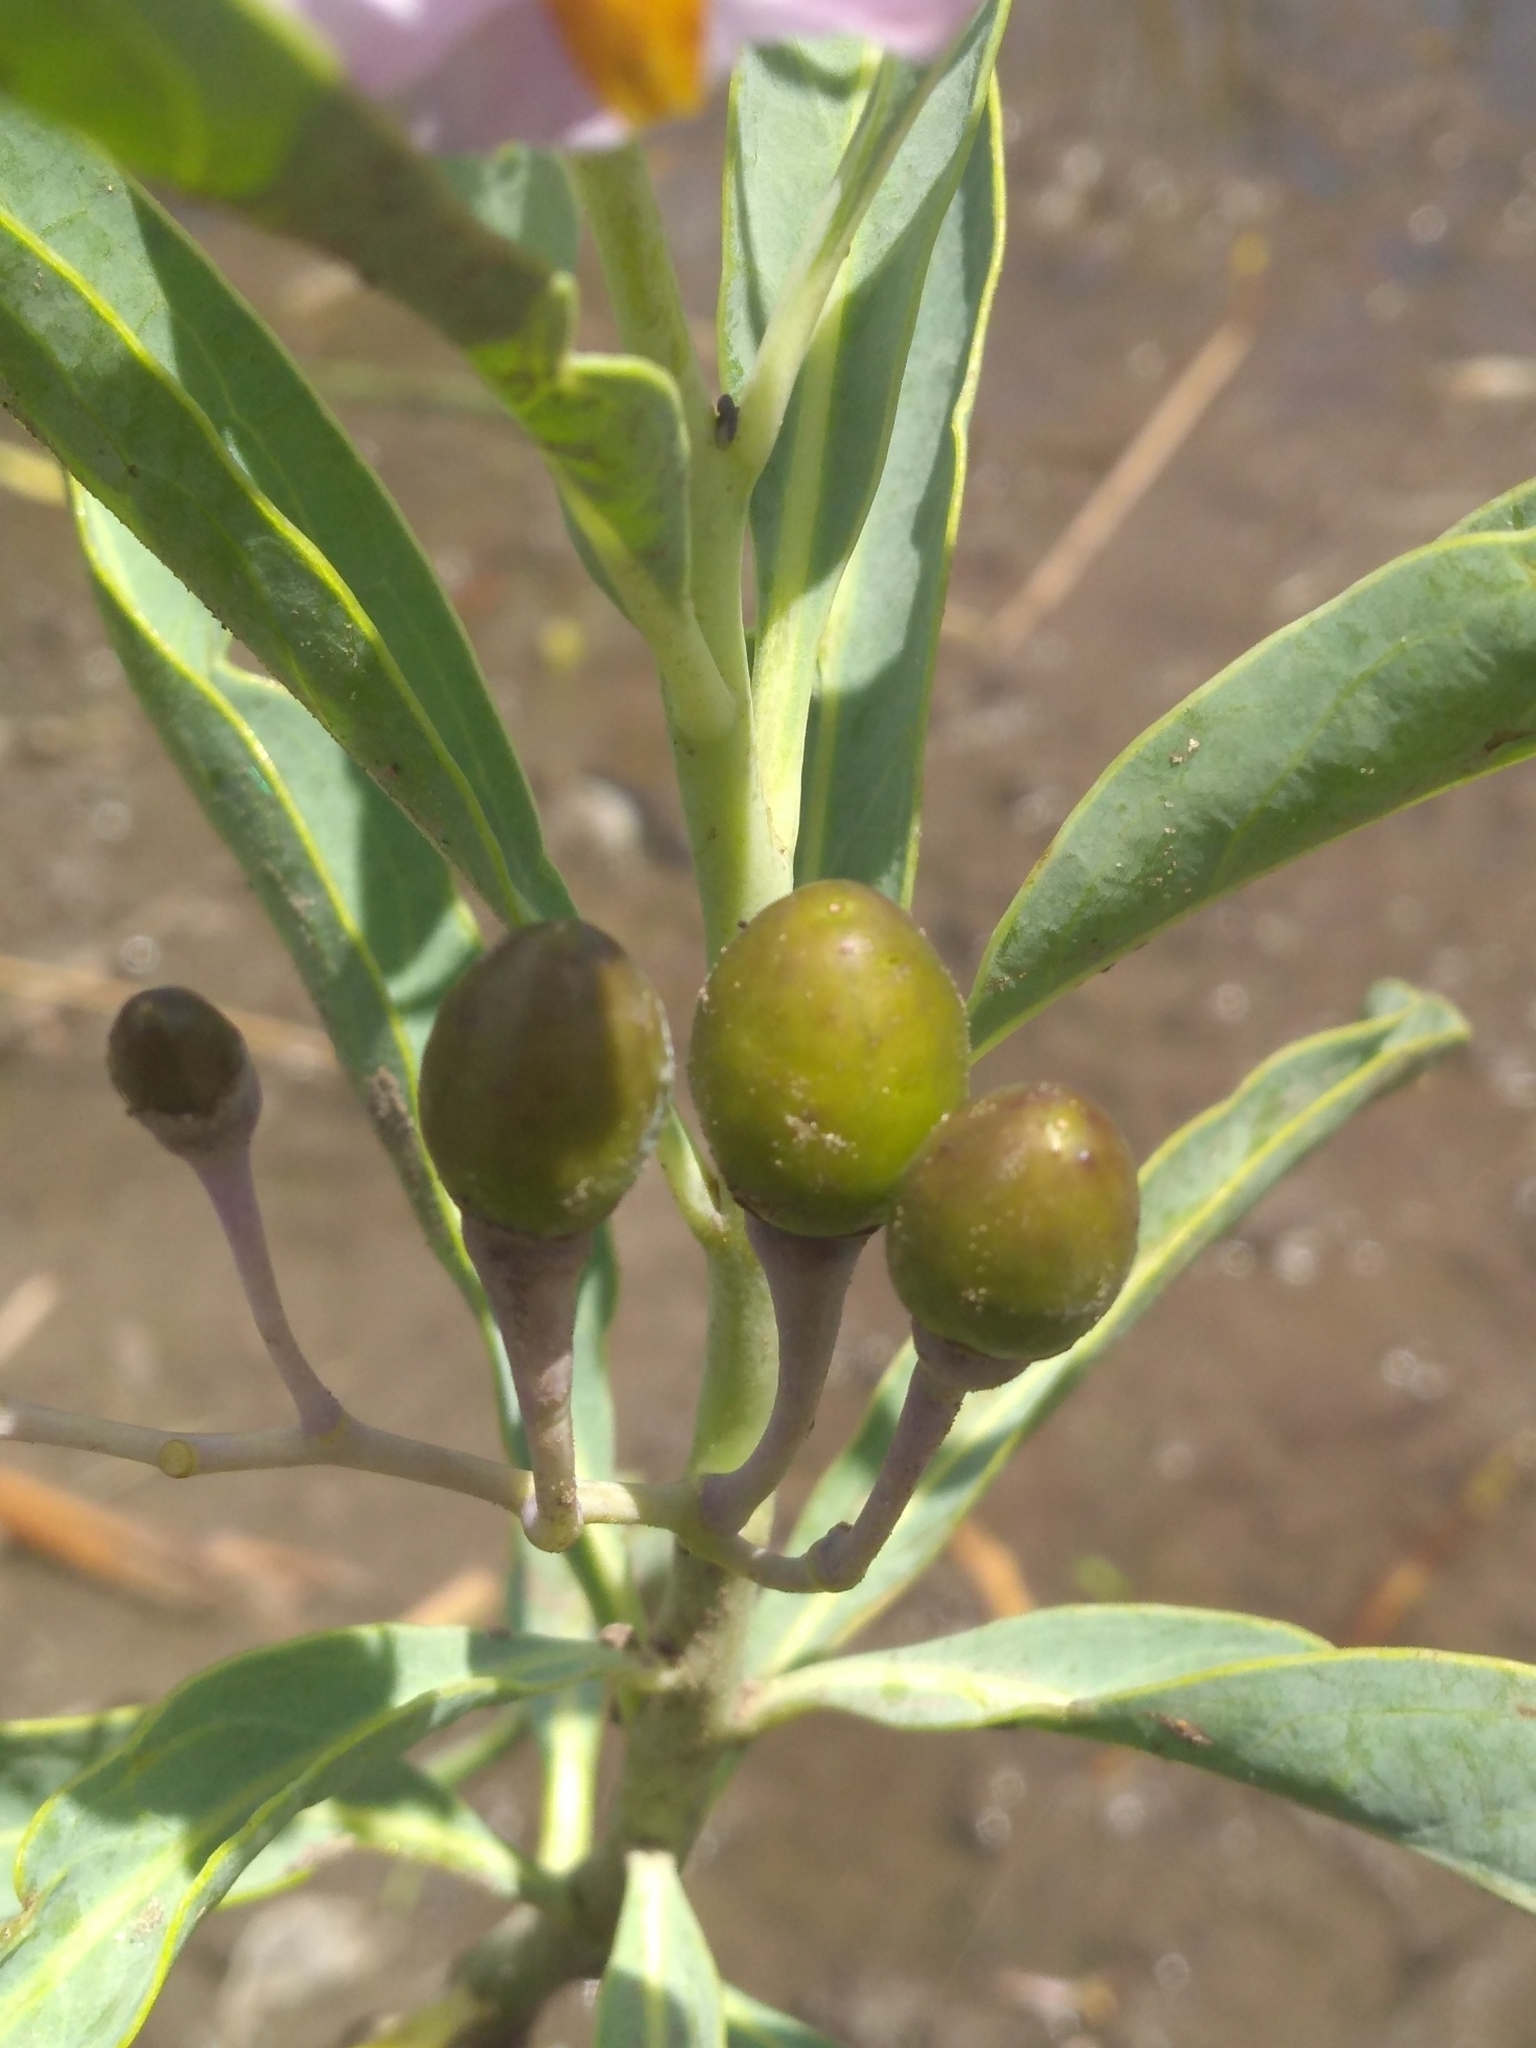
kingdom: Plantae
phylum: Tracheophyta
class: Magnoliopsida
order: Solanales
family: Solanaceae
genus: Solanum
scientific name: Solanum glaucophyllum
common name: Waxyleaf nightshade
